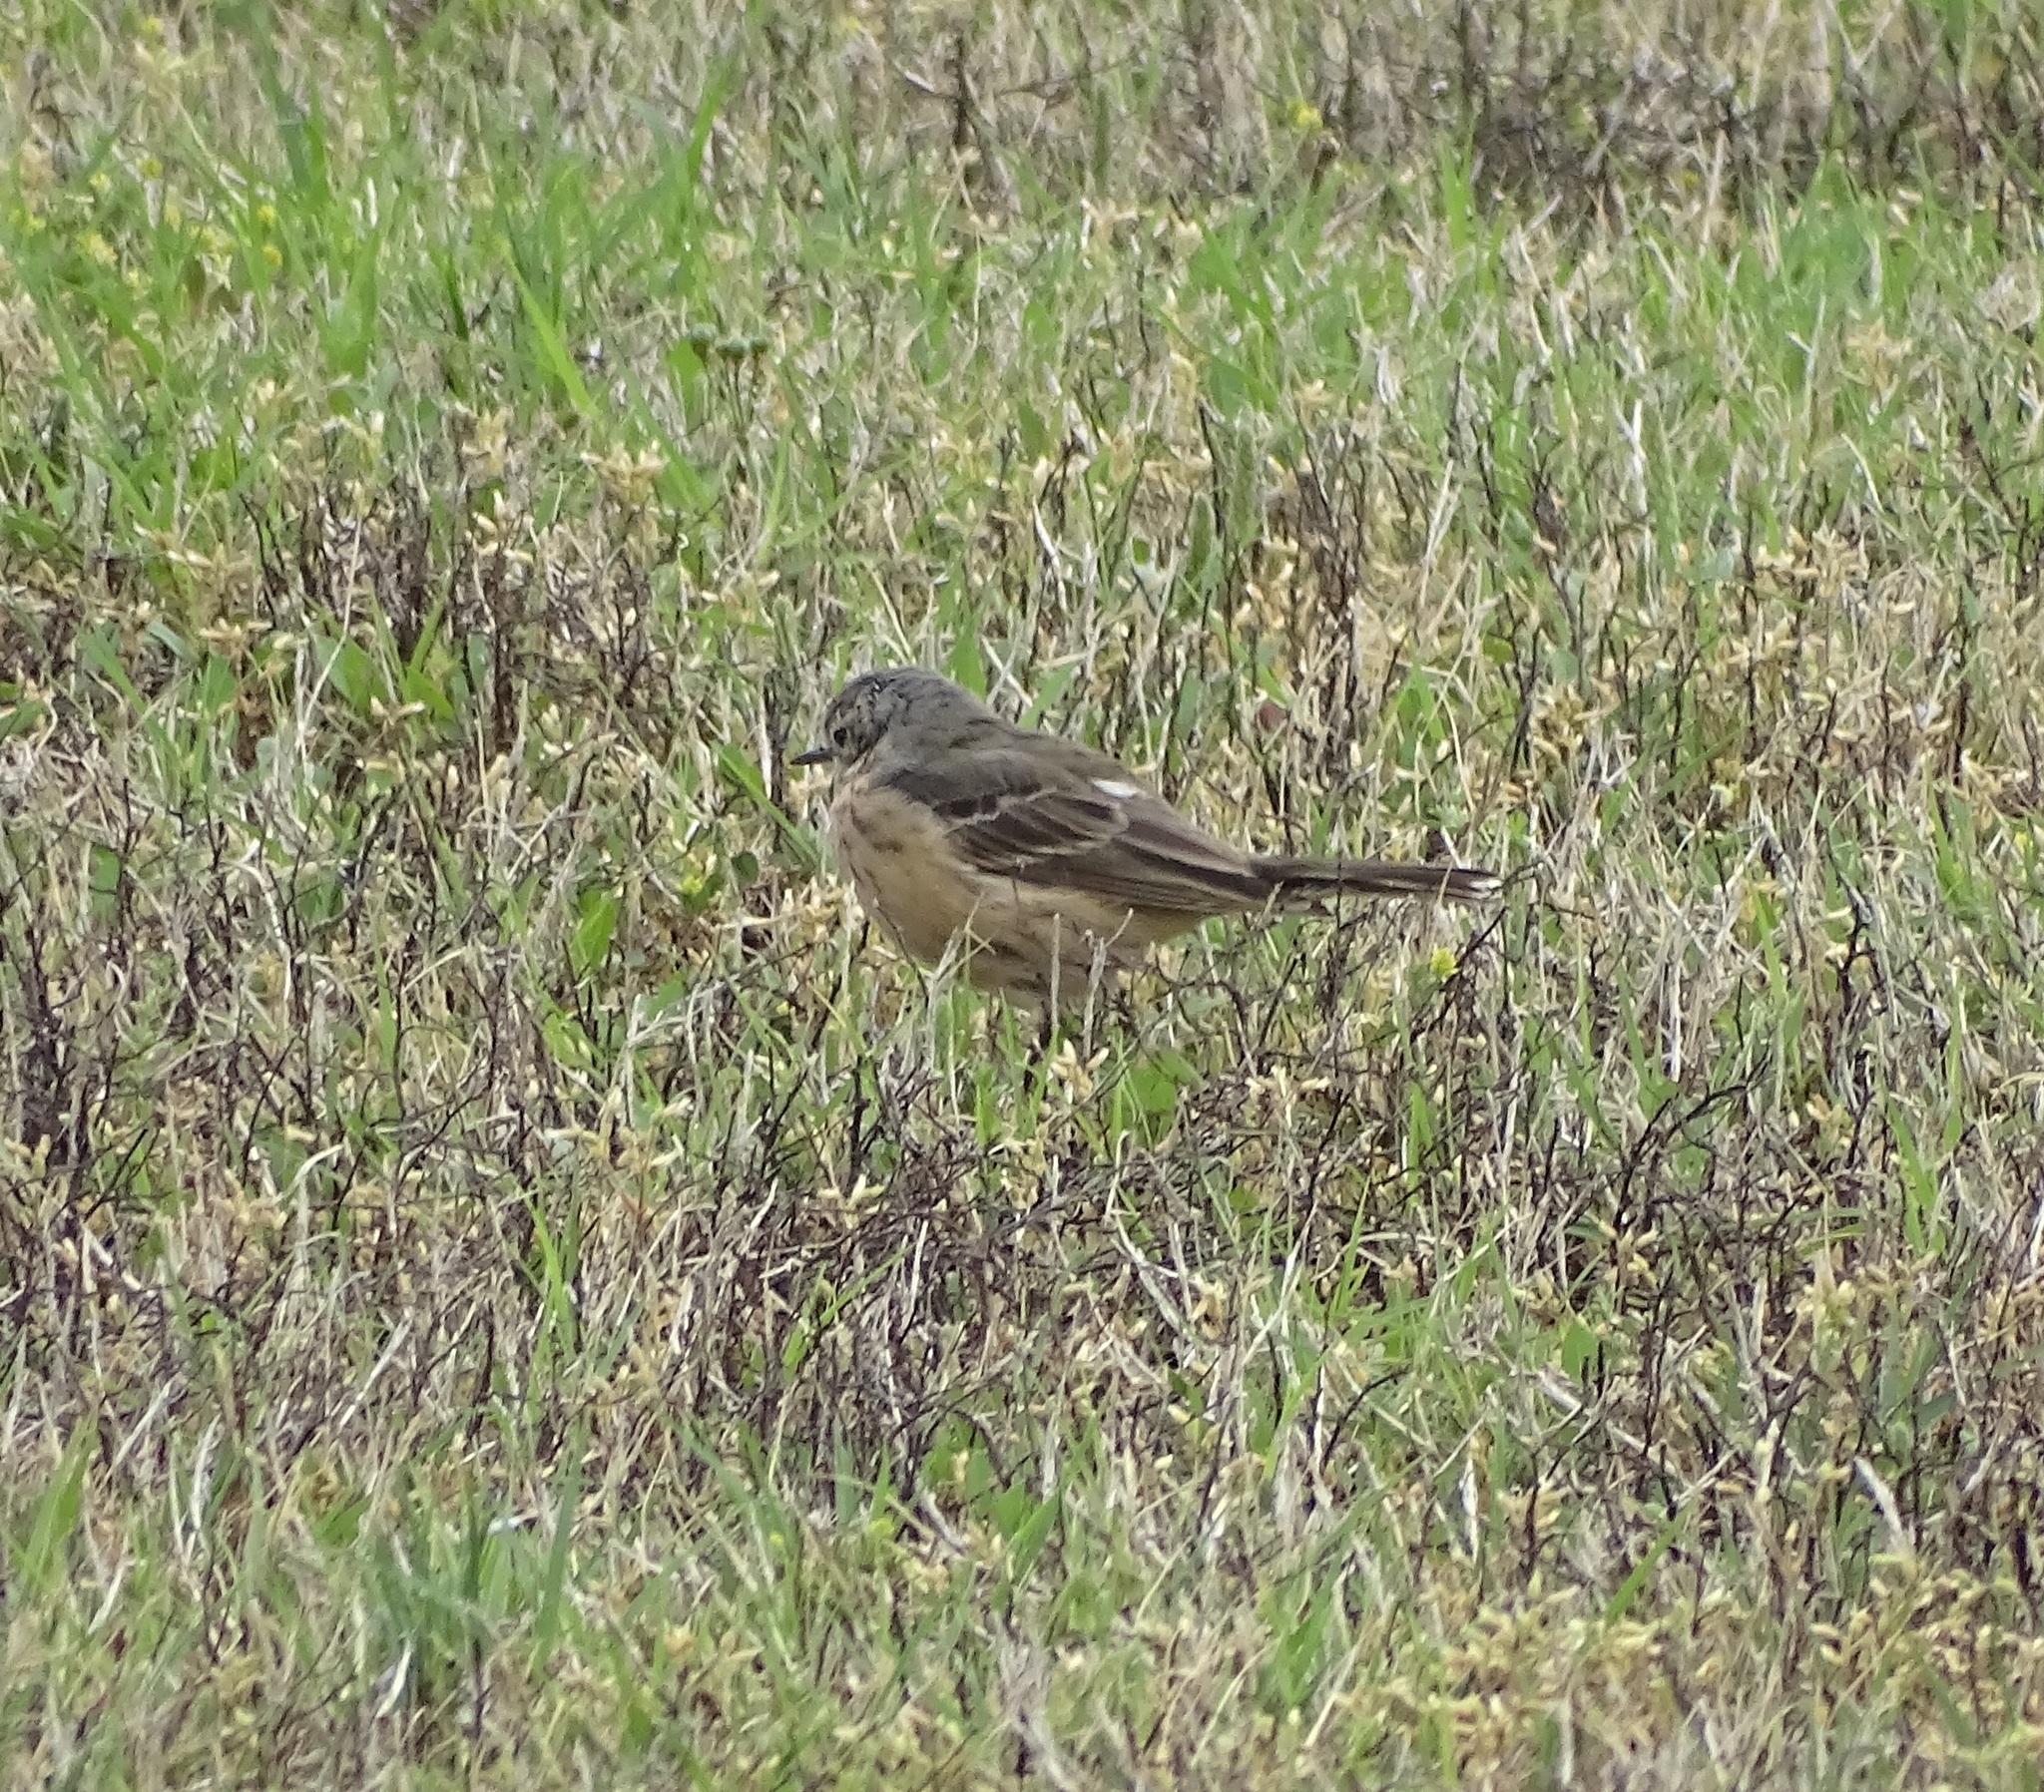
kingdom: Animalia
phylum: Chordata
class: Aves
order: Passeriformes
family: Motacillidae
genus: Anthus
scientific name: Anthus rubescens
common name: Buff-bellied pipit
